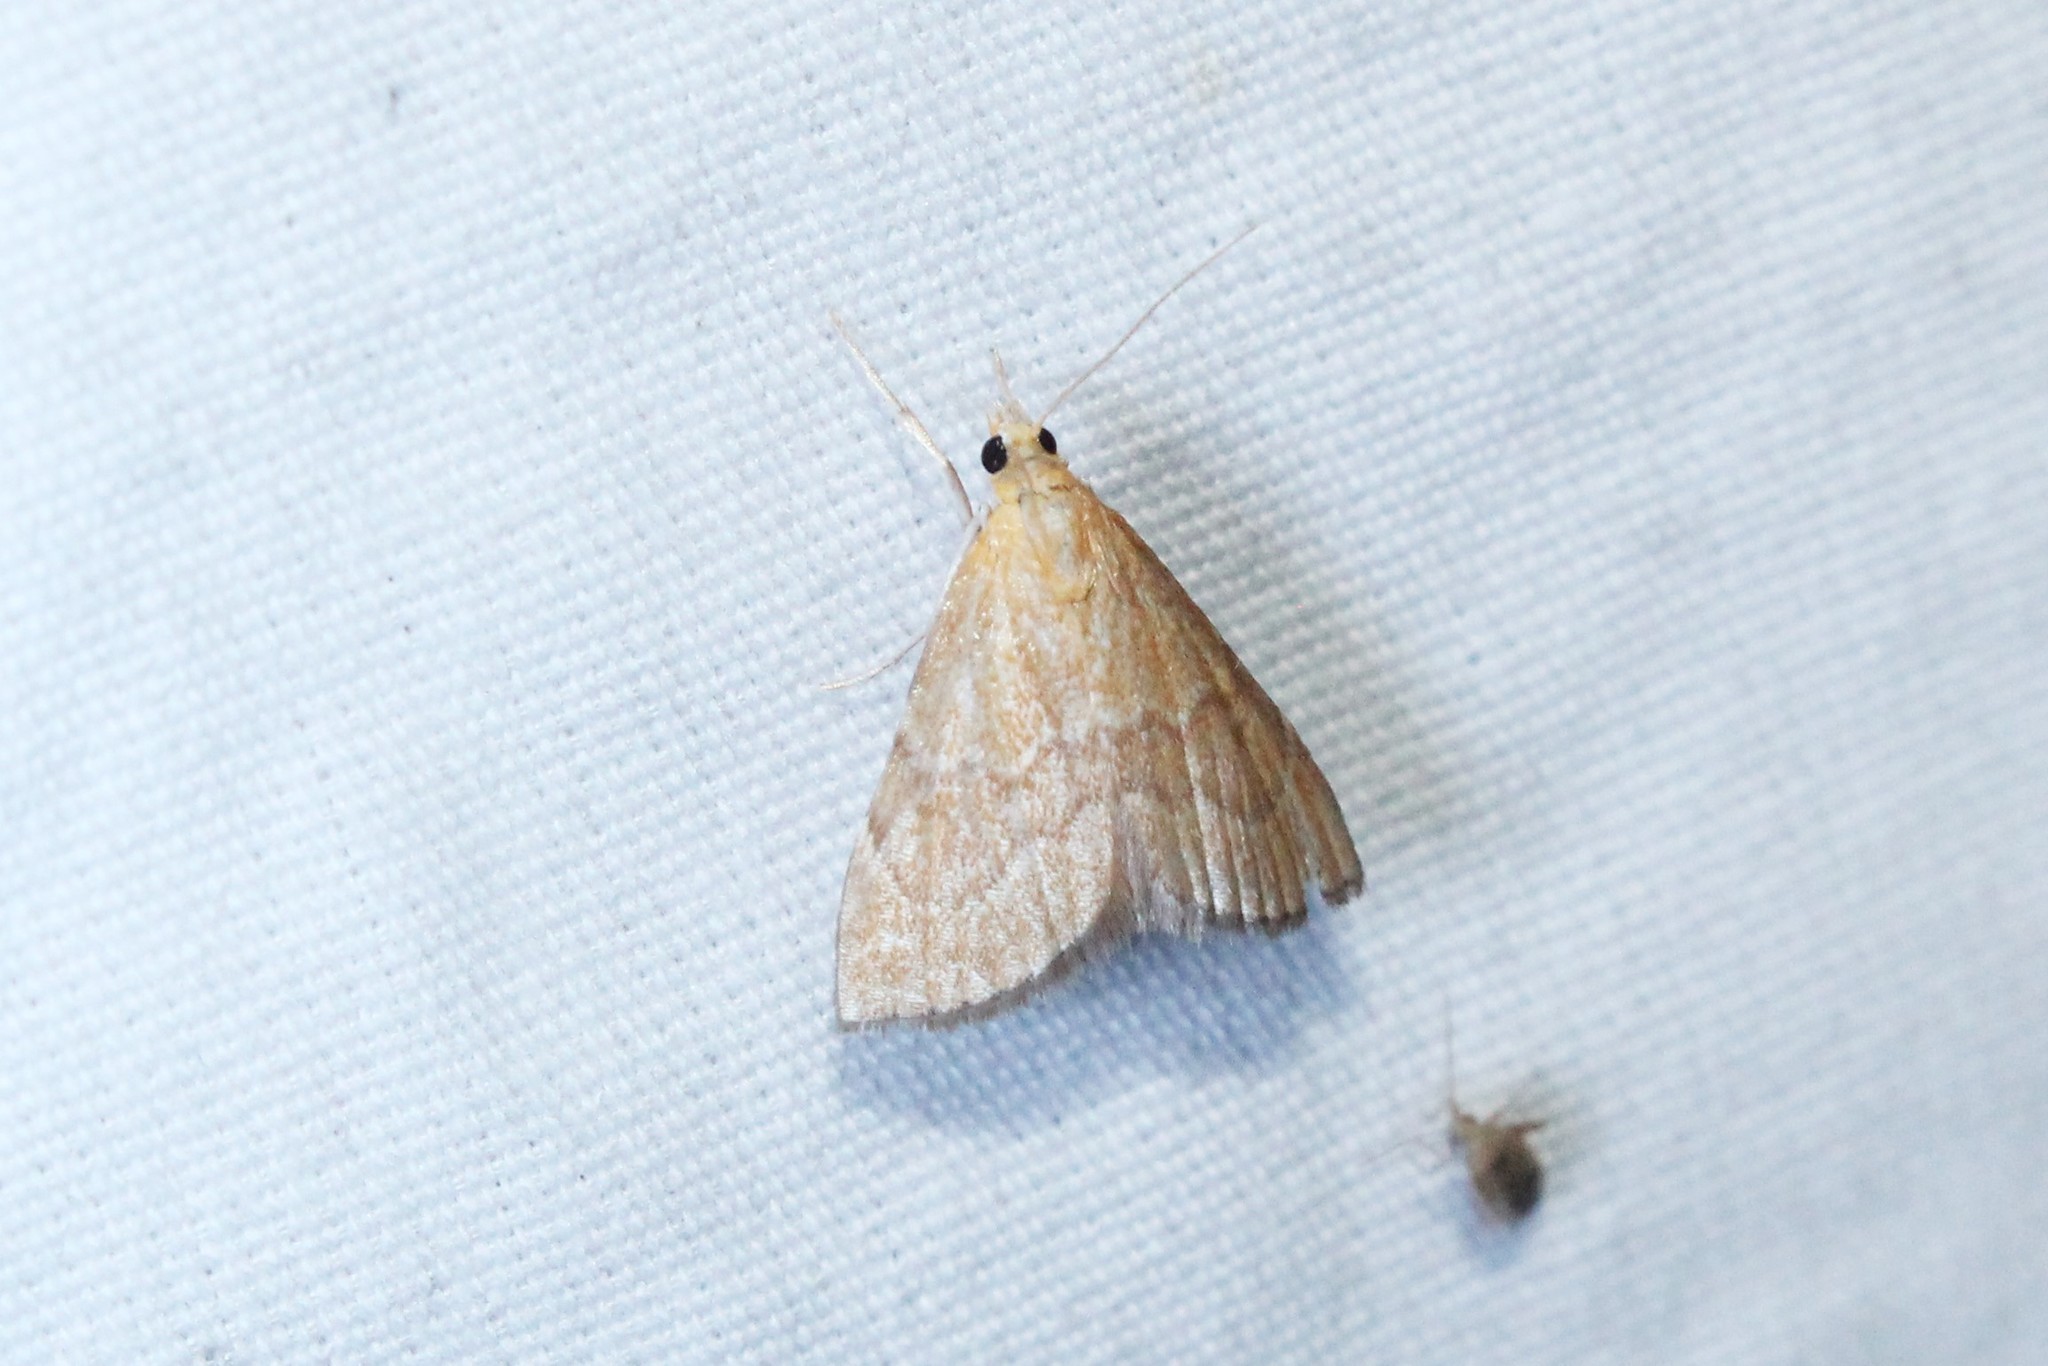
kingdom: Animalia
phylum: Arthropoda
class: Insecta
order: Lepidoptera
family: Crambidae
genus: Glaphyria
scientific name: Glaphyria invisalis
